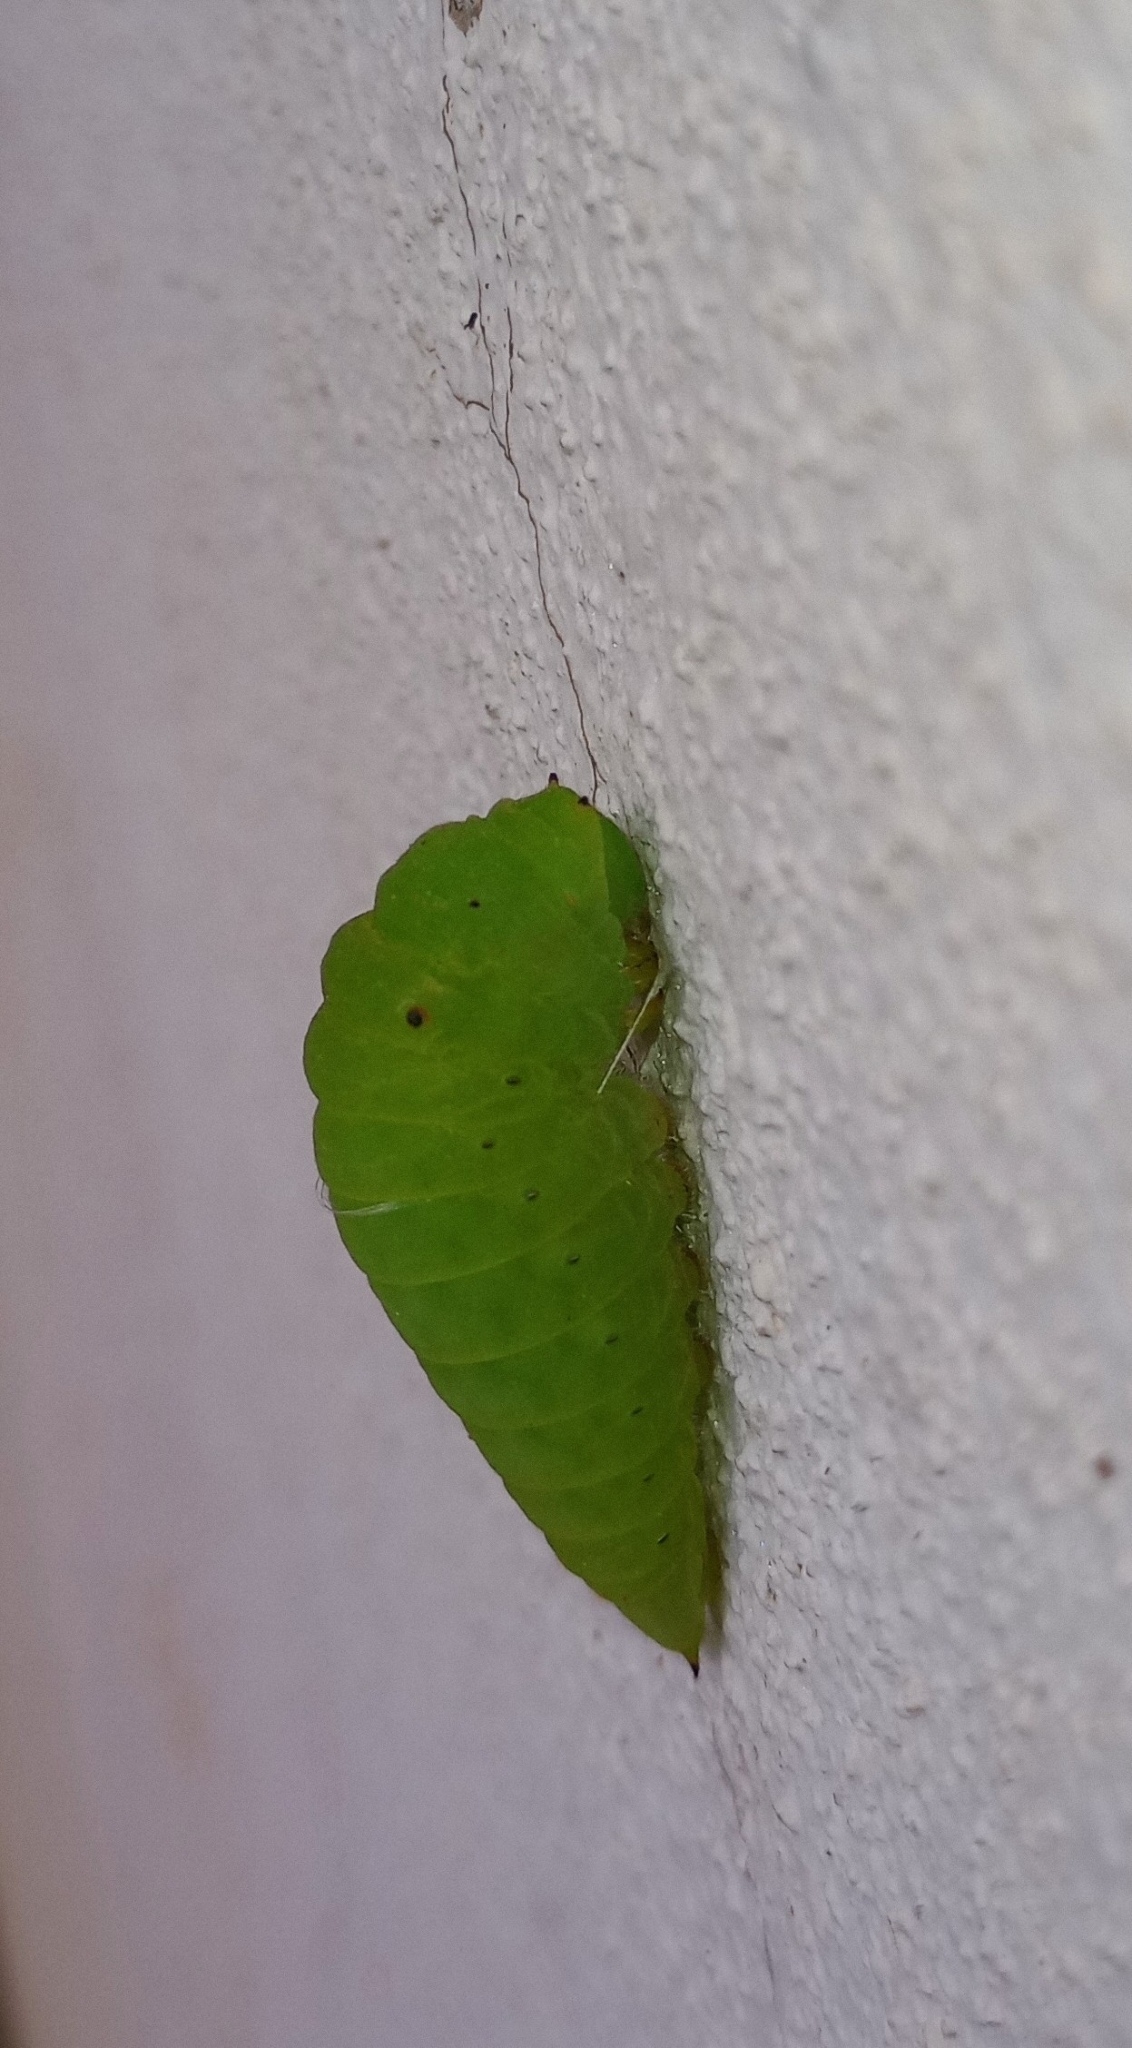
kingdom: Animalia
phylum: Arthropoda
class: Insecta
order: Lepidoptera
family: Papilionidae
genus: Graphium
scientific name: Graphium agamemnon
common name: Tailed jay
